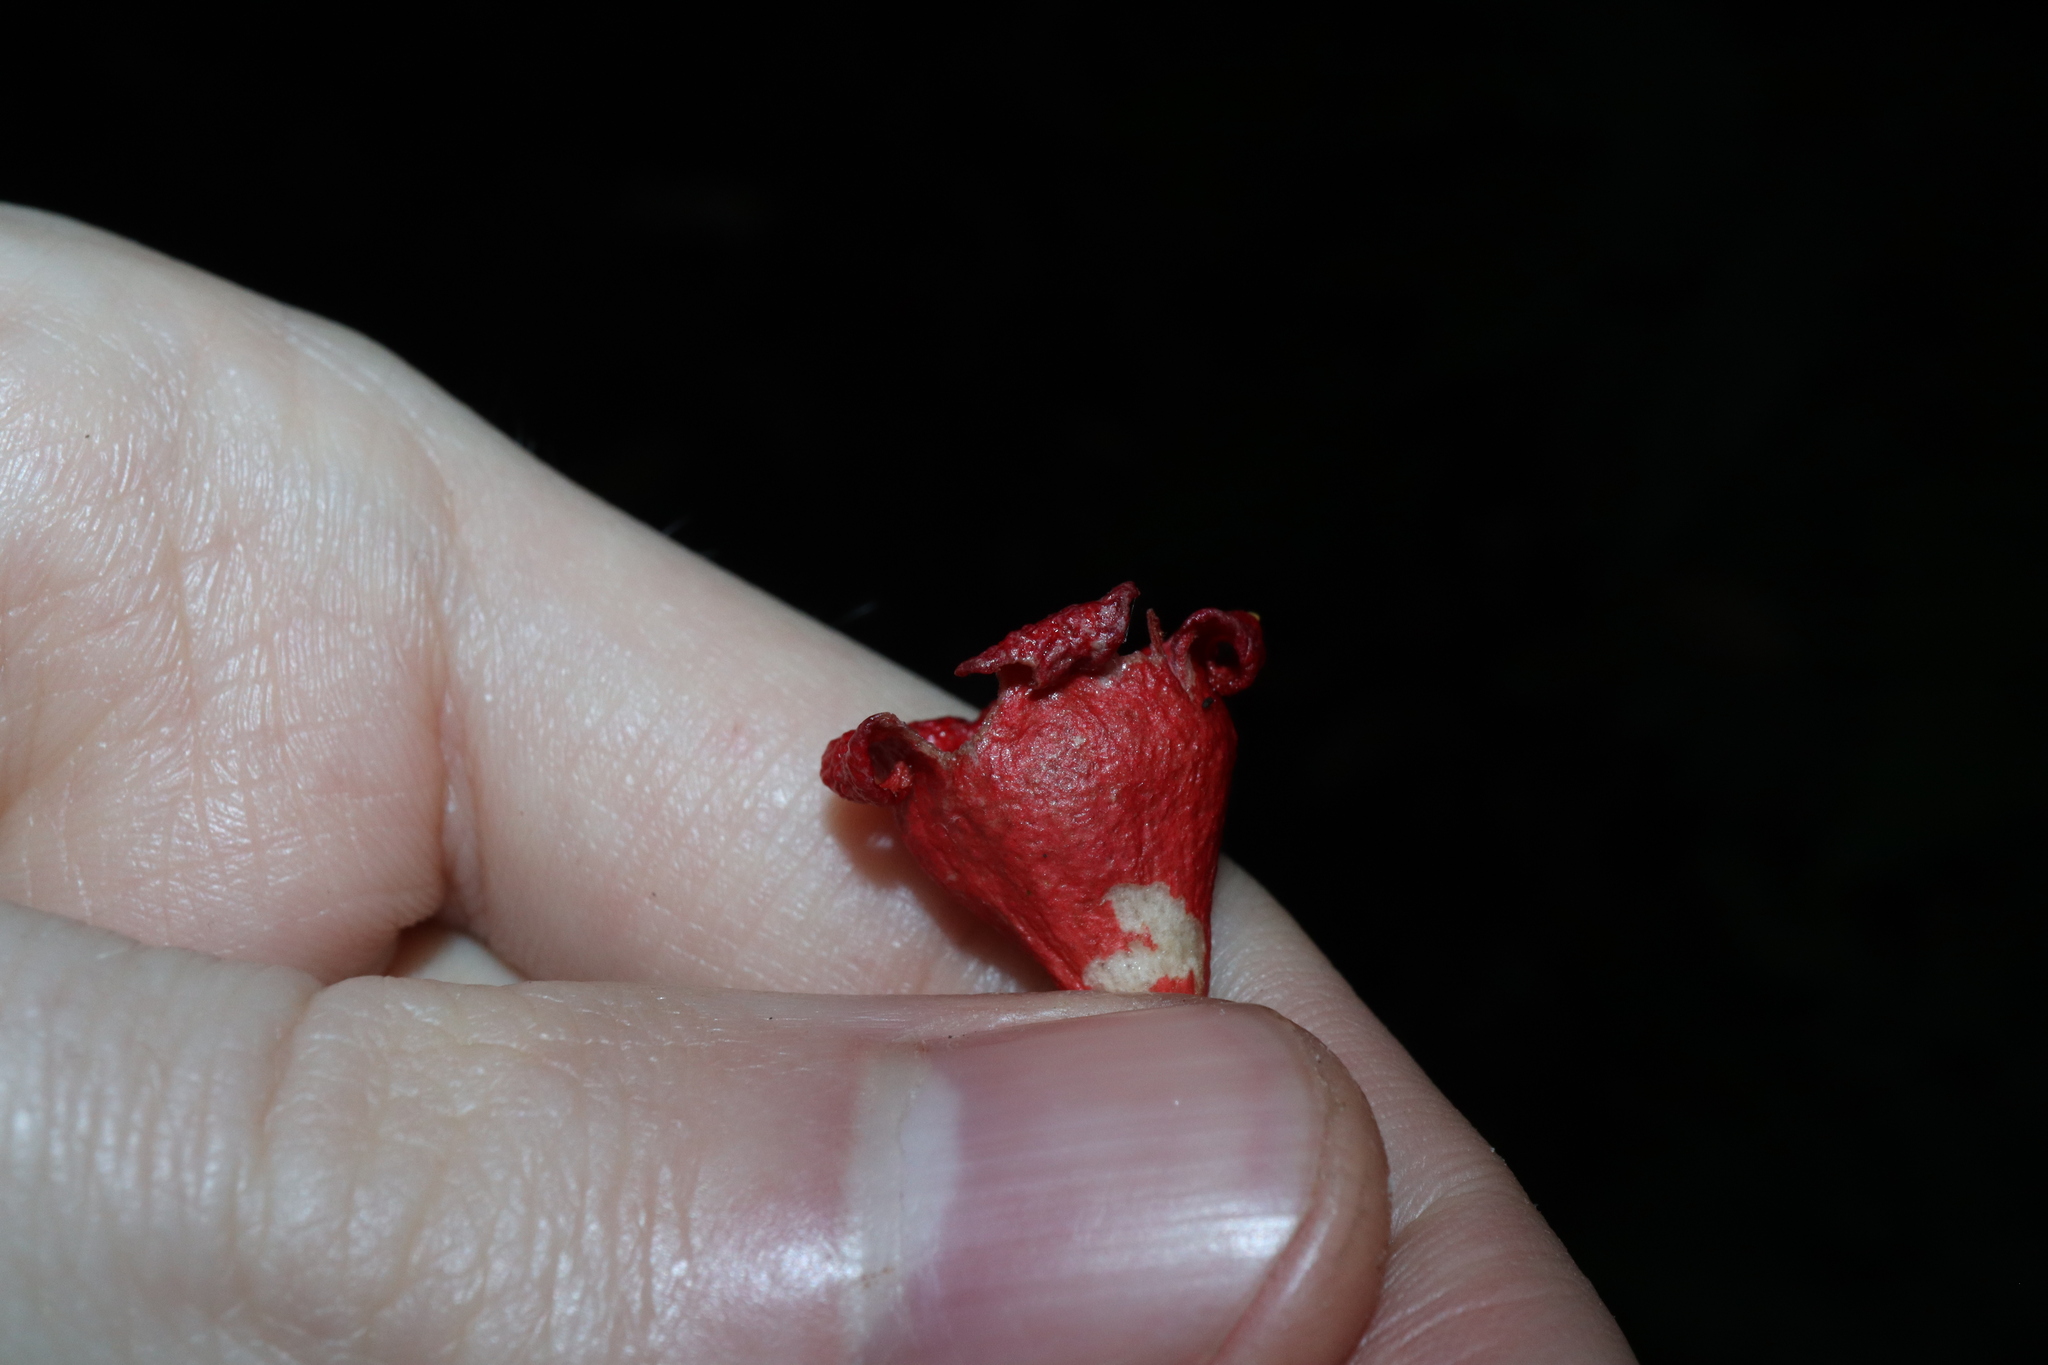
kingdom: Plantae
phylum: Tracheophyta
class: Magnoliopsida
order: Malvales
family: Malvaceae
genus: Brachychiton
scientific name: Brachychiton acerifolius
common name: Illawarra flame tree
